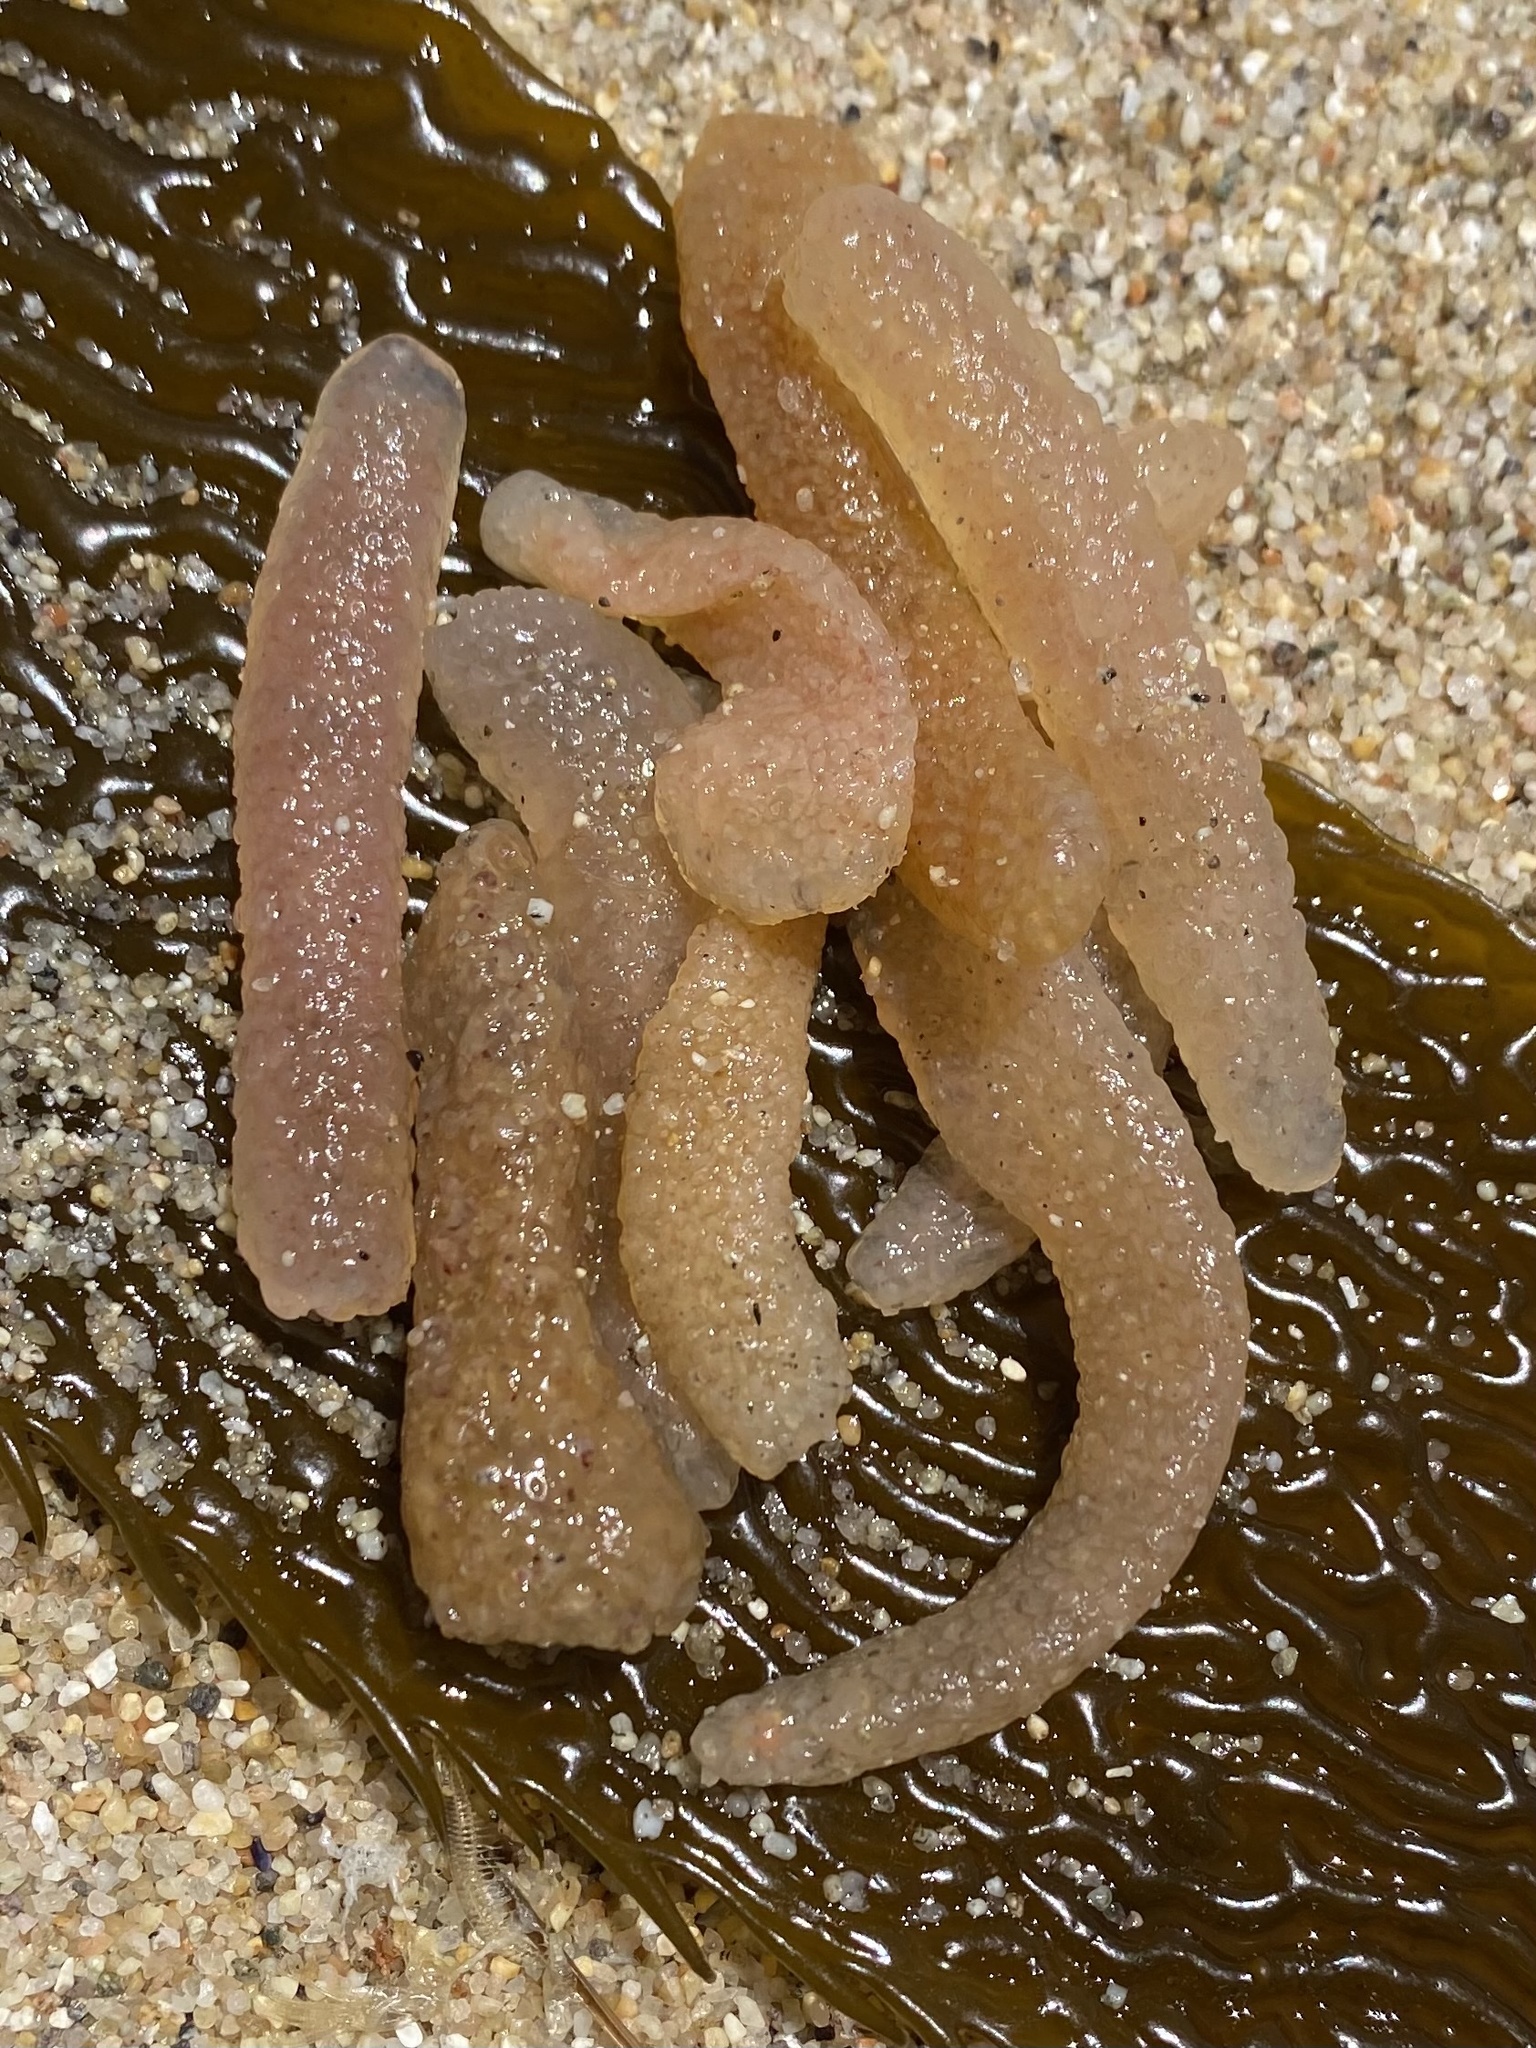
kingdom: Animalia
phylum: Chordata
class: Thaliacea
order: Pyrosomatida
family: Pyrosomatidae
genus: Pyrosoma
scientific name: Pyrosoma atlanticum
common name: Atlantic pyrosomes
